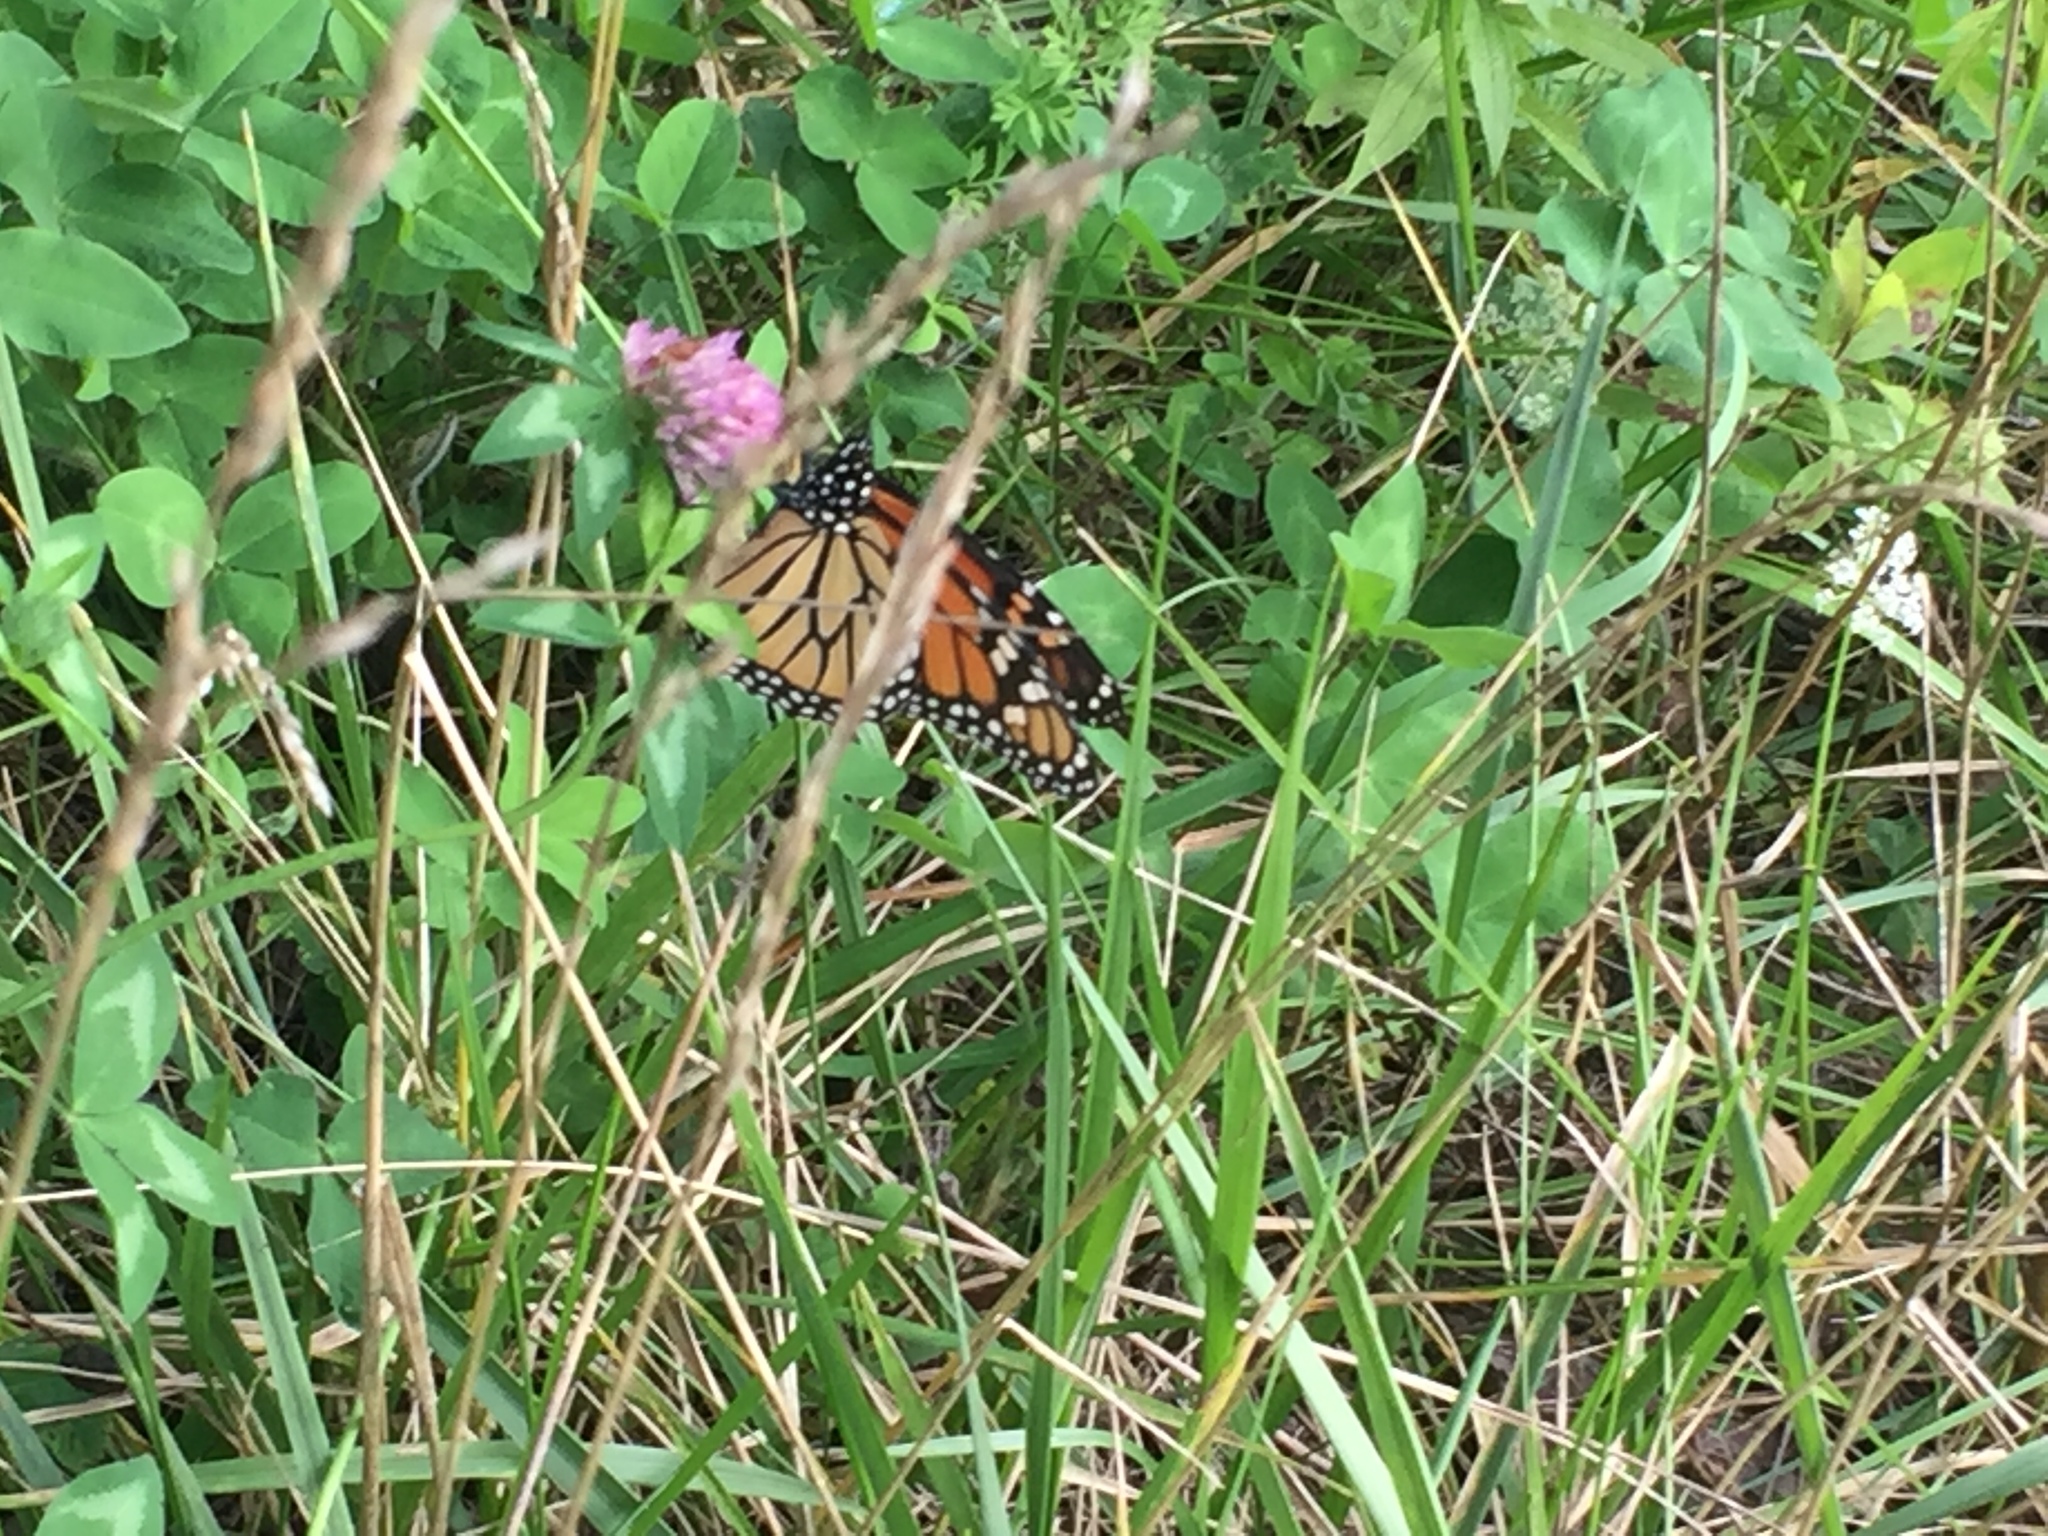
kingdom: Animalia
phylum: Arthropoda
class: Insecta
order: Lepidoptera
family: Nymphalidae
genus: Danaus
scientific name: Danaus plexippus
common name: Monarch
